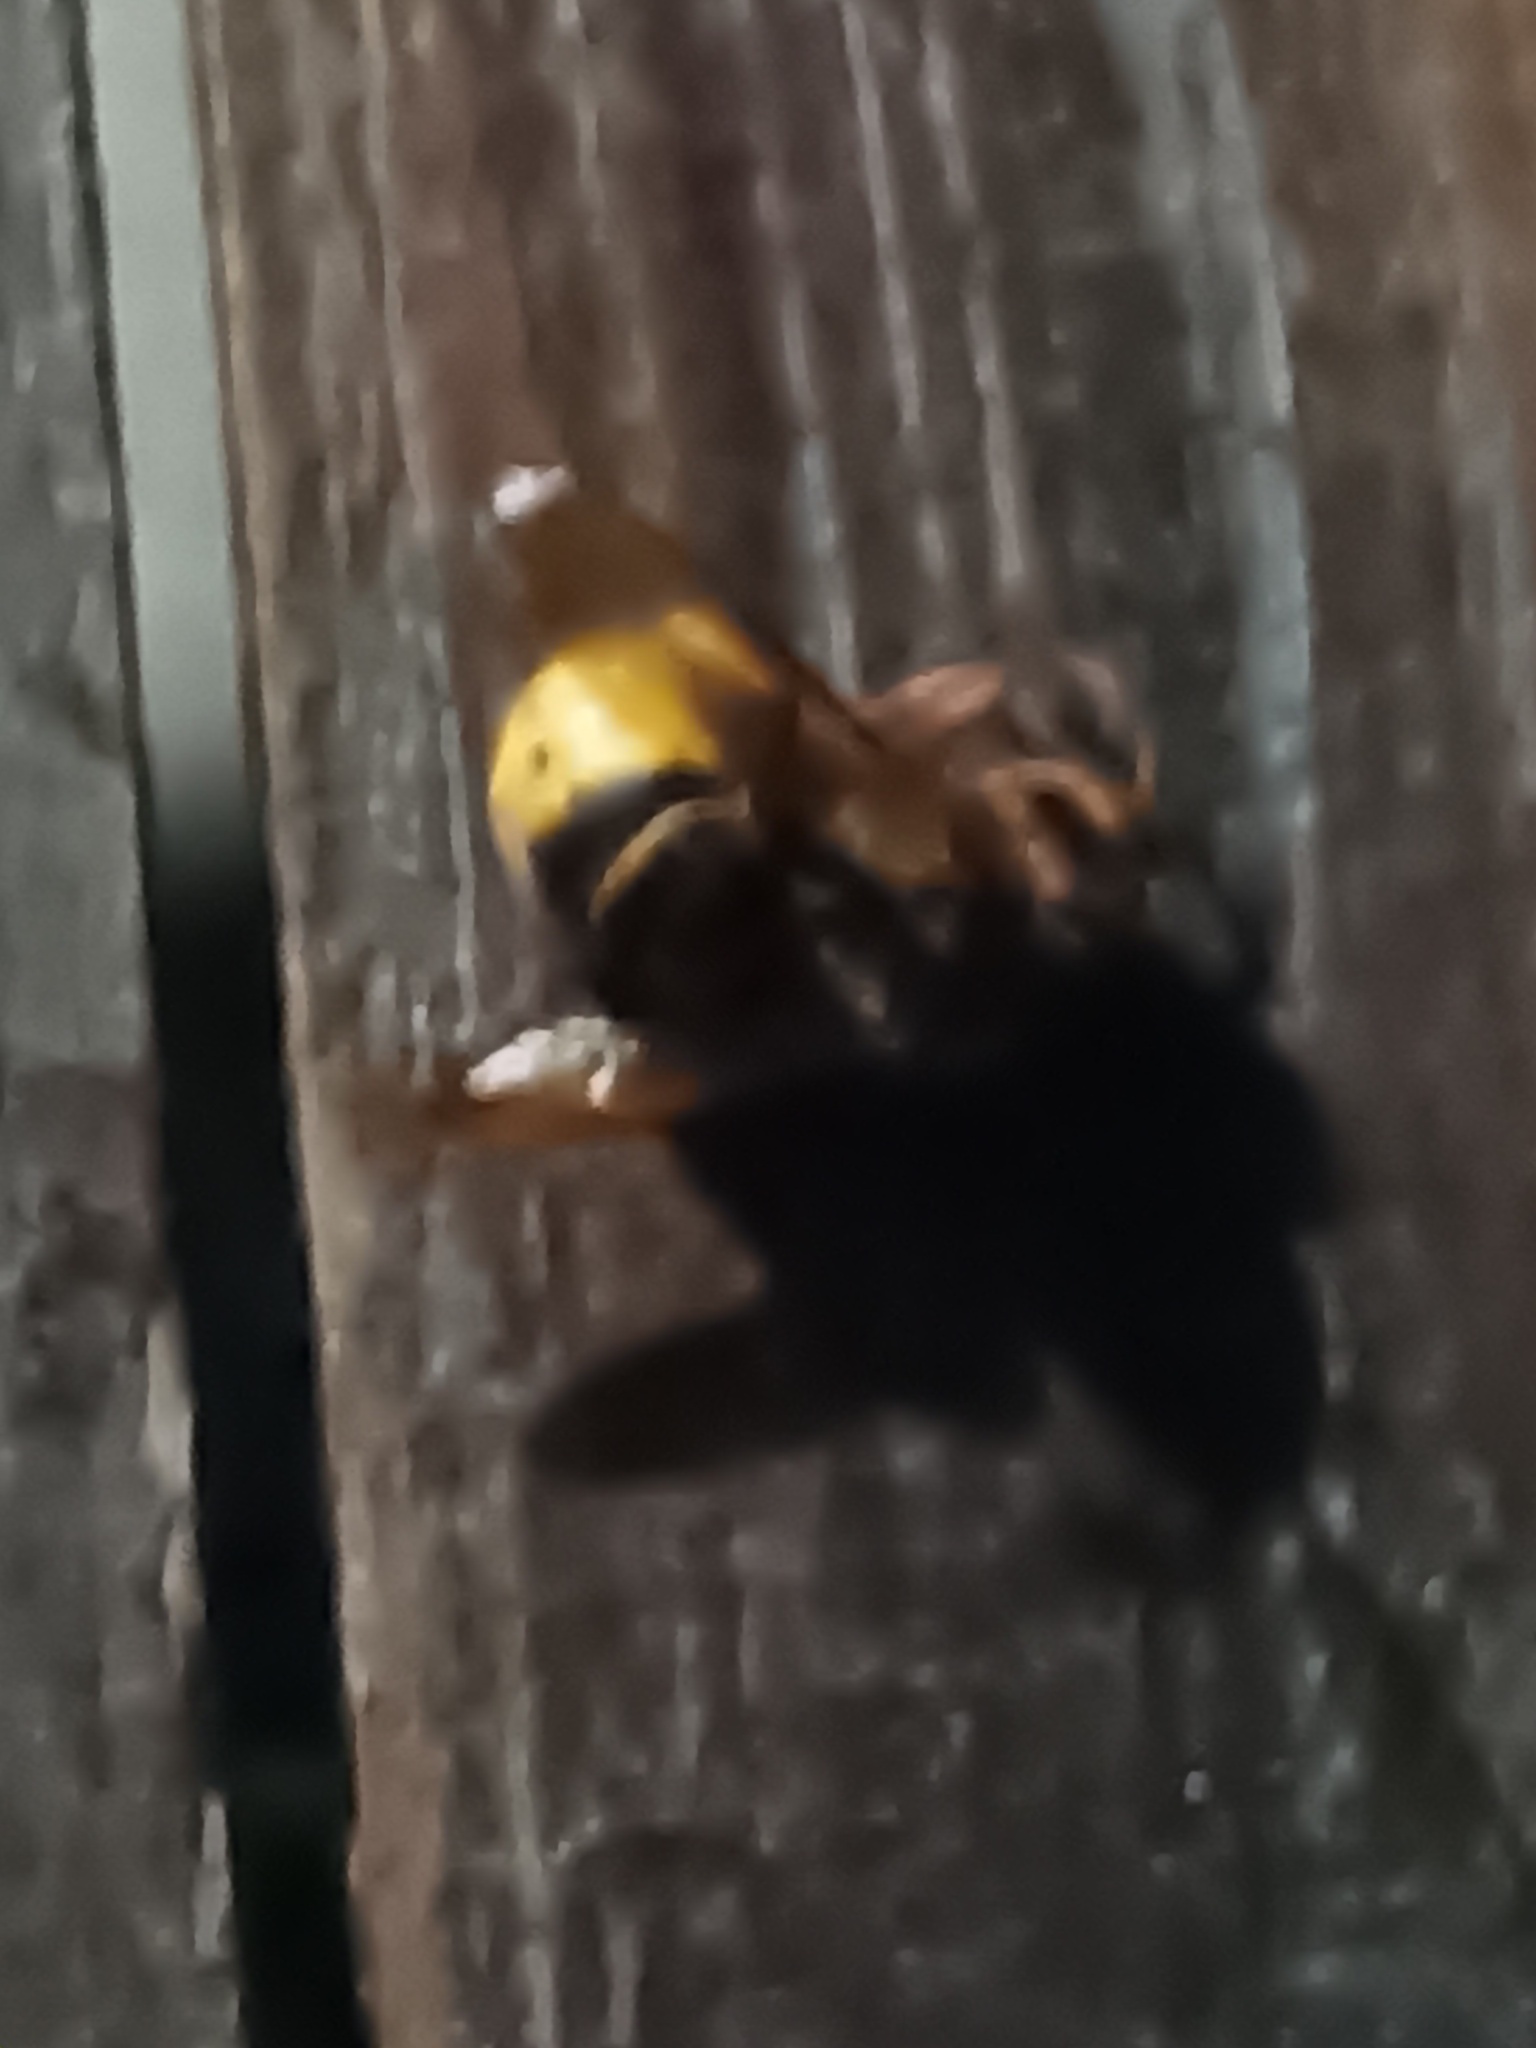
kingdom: Animalia
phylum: Arthropoda
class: Insecta
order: Hymenoptera
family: Vespidae
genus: Vespa
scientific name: Vespa crabro
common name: Hornet
